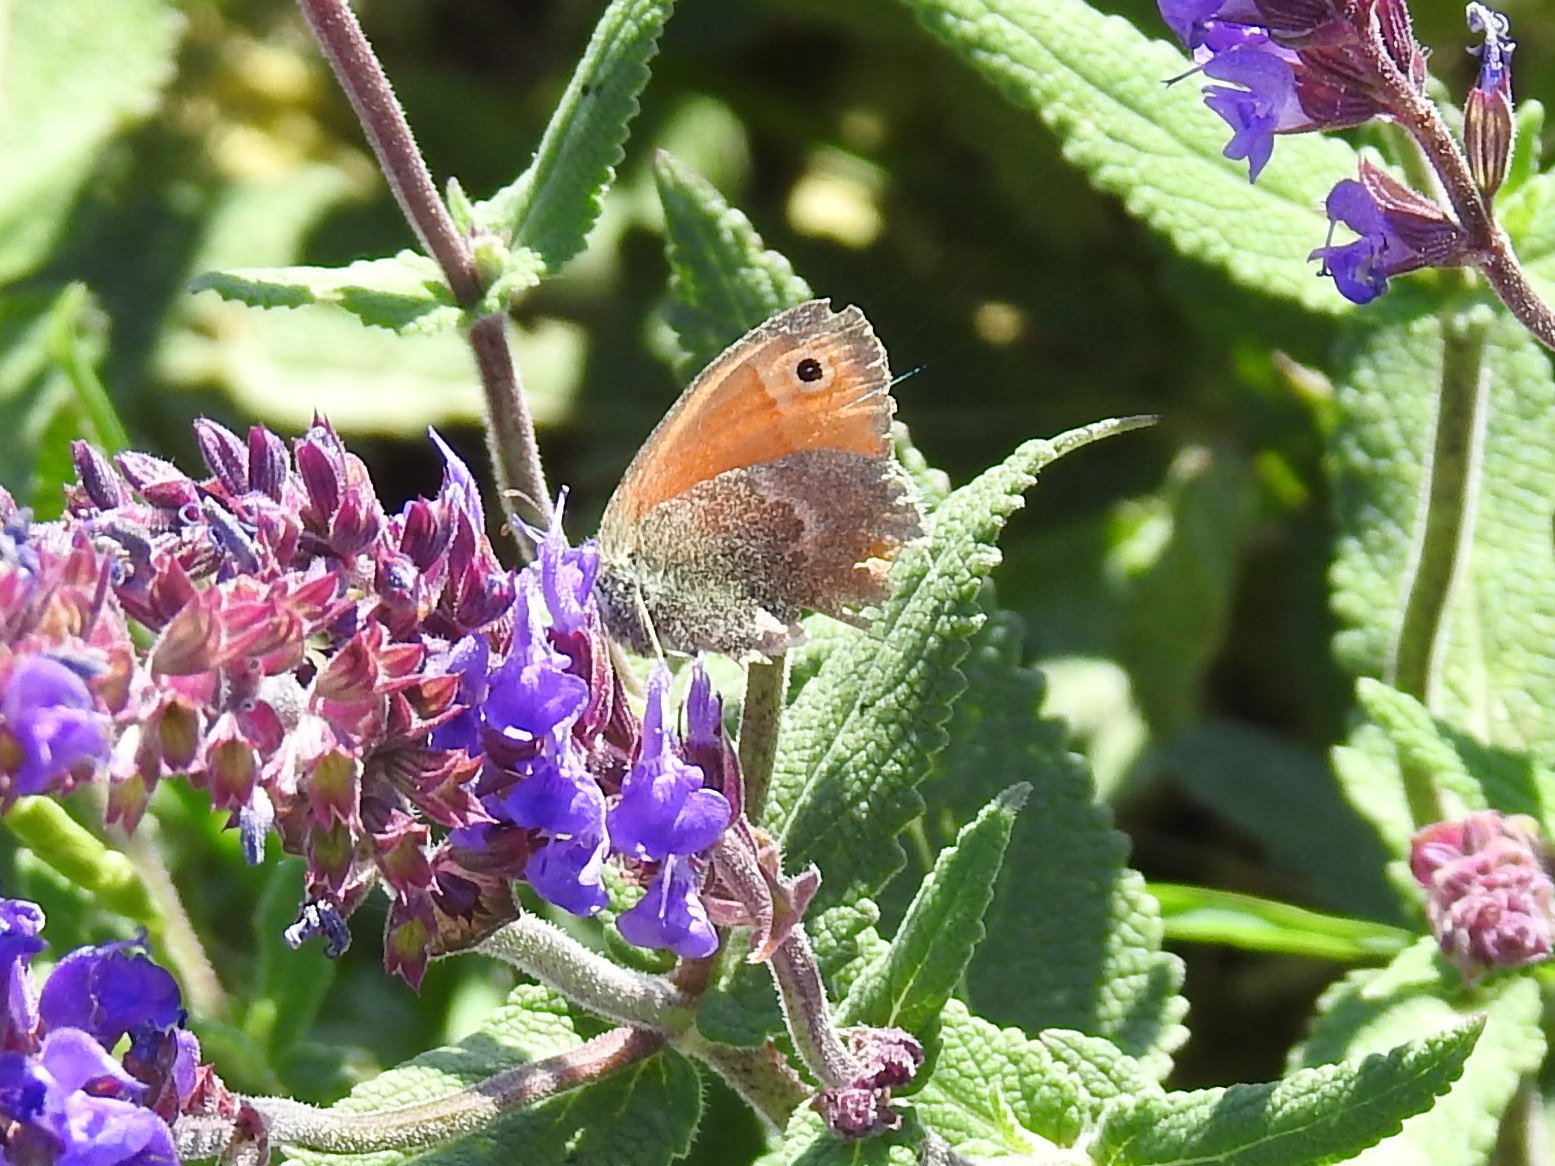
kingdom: Animalia
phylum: Arthropoda
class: Insecta
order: Lepidoptera
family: Nymphalidae
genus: Coenonympha
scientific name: Coenonympha pamphilus
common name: Small heath
